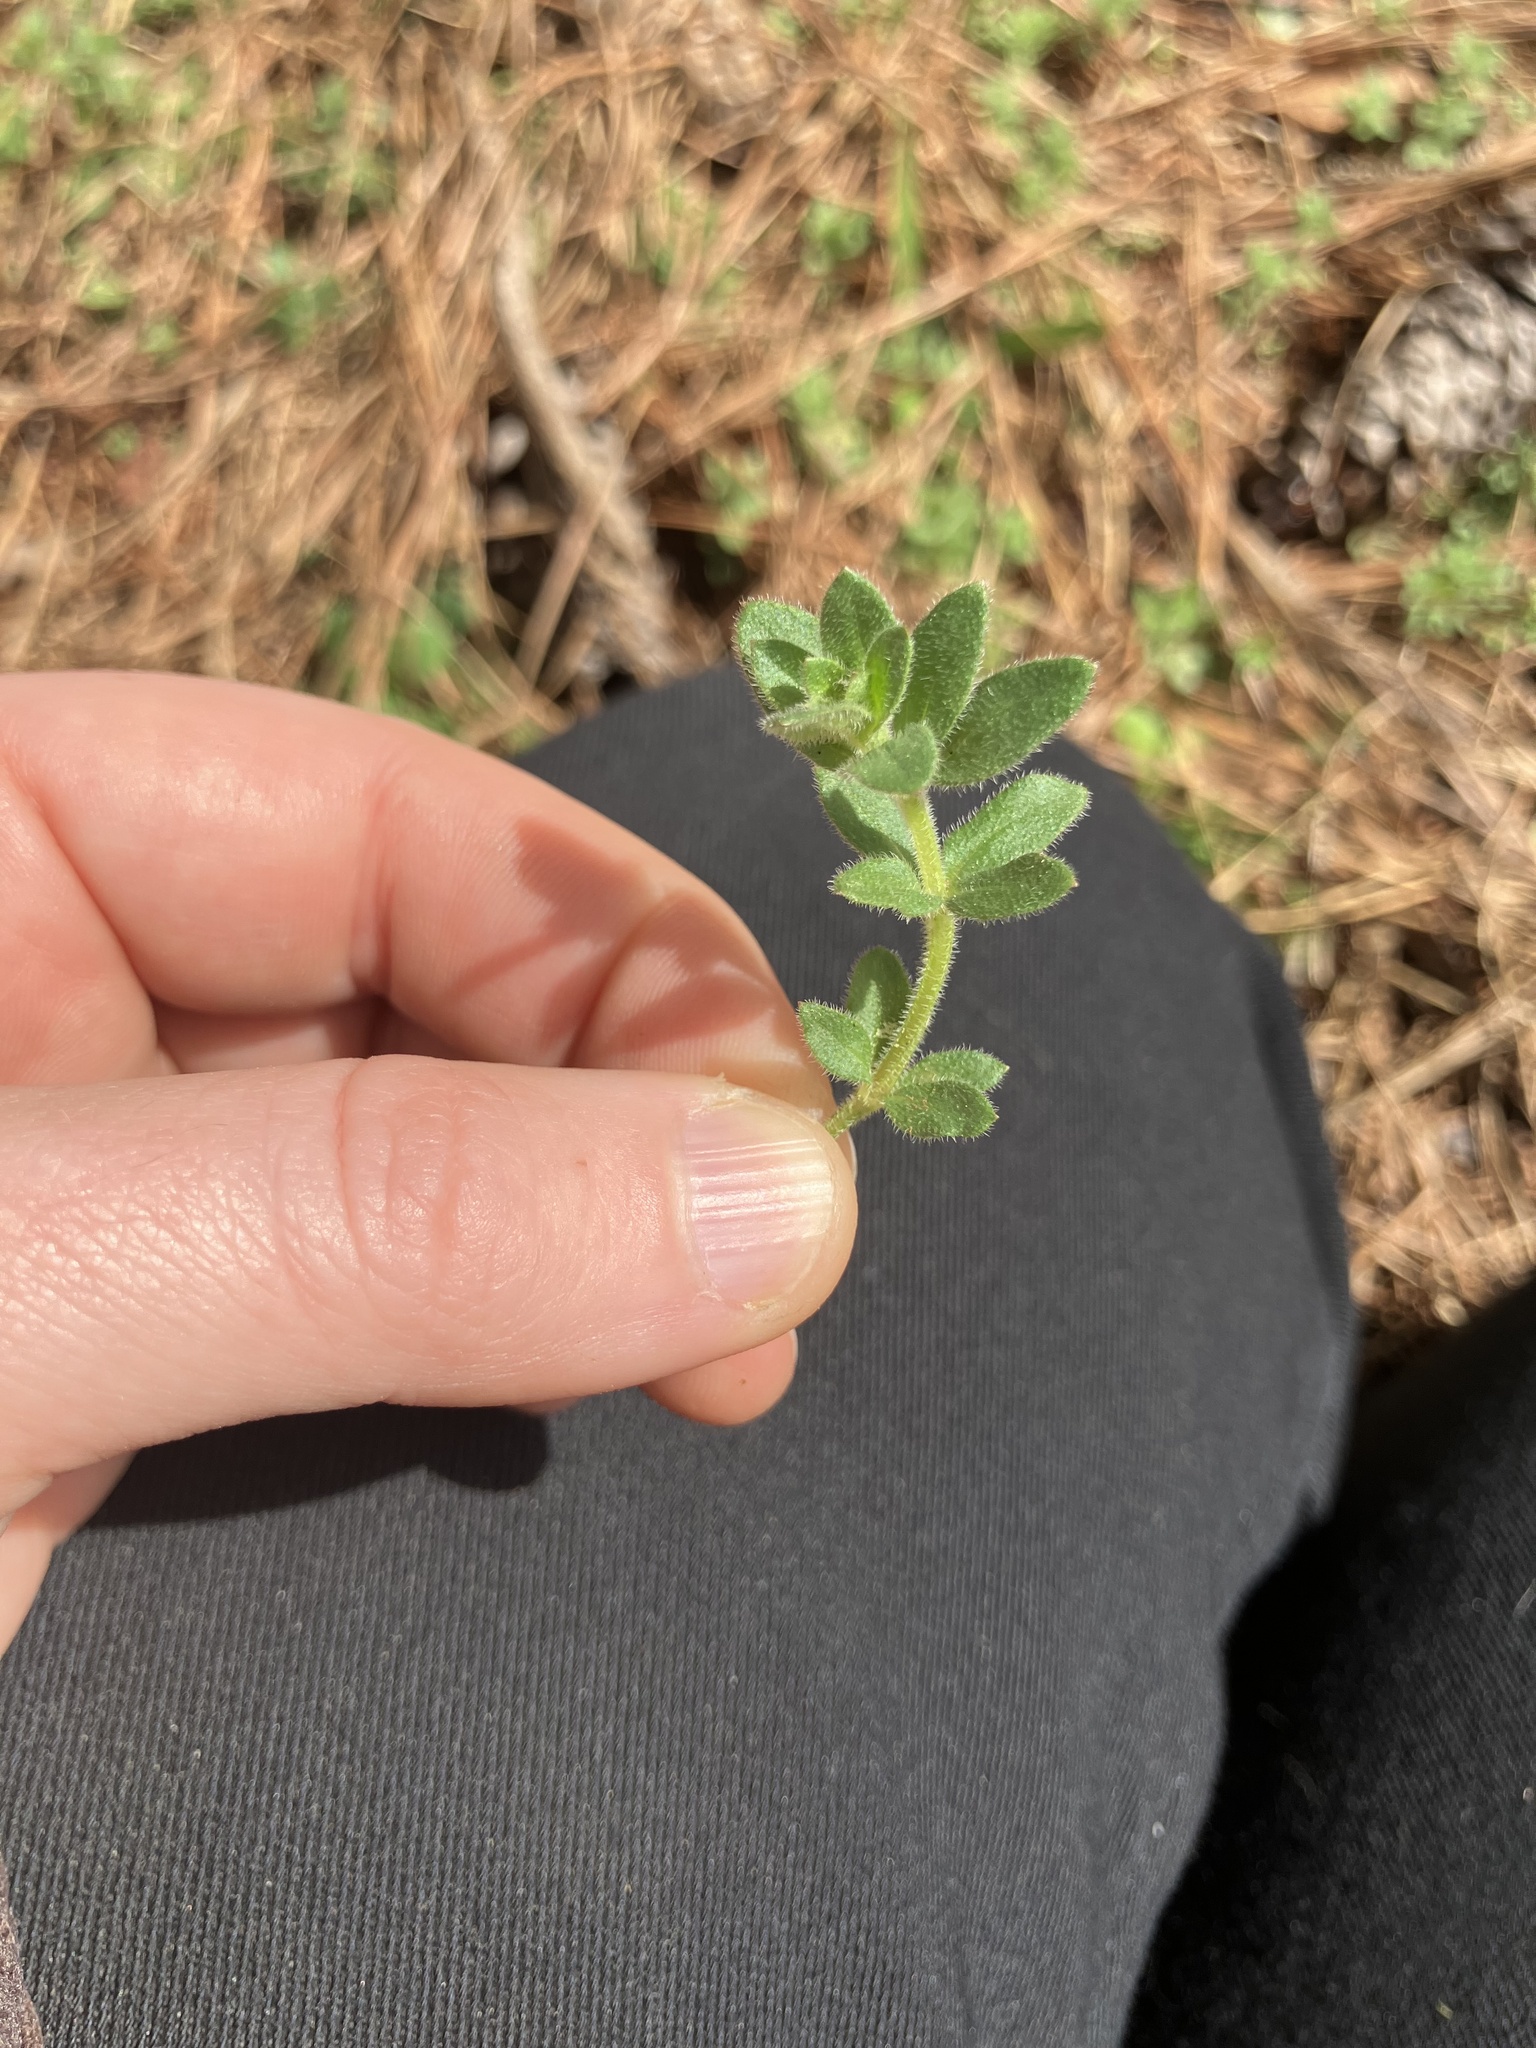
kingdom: Plantae
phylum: Tracheophyta
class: Magnoliopsida
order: Gentianales
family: Rubiaceae
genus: Galium
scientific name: Galium pilosum
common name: Hairy bedstraw
